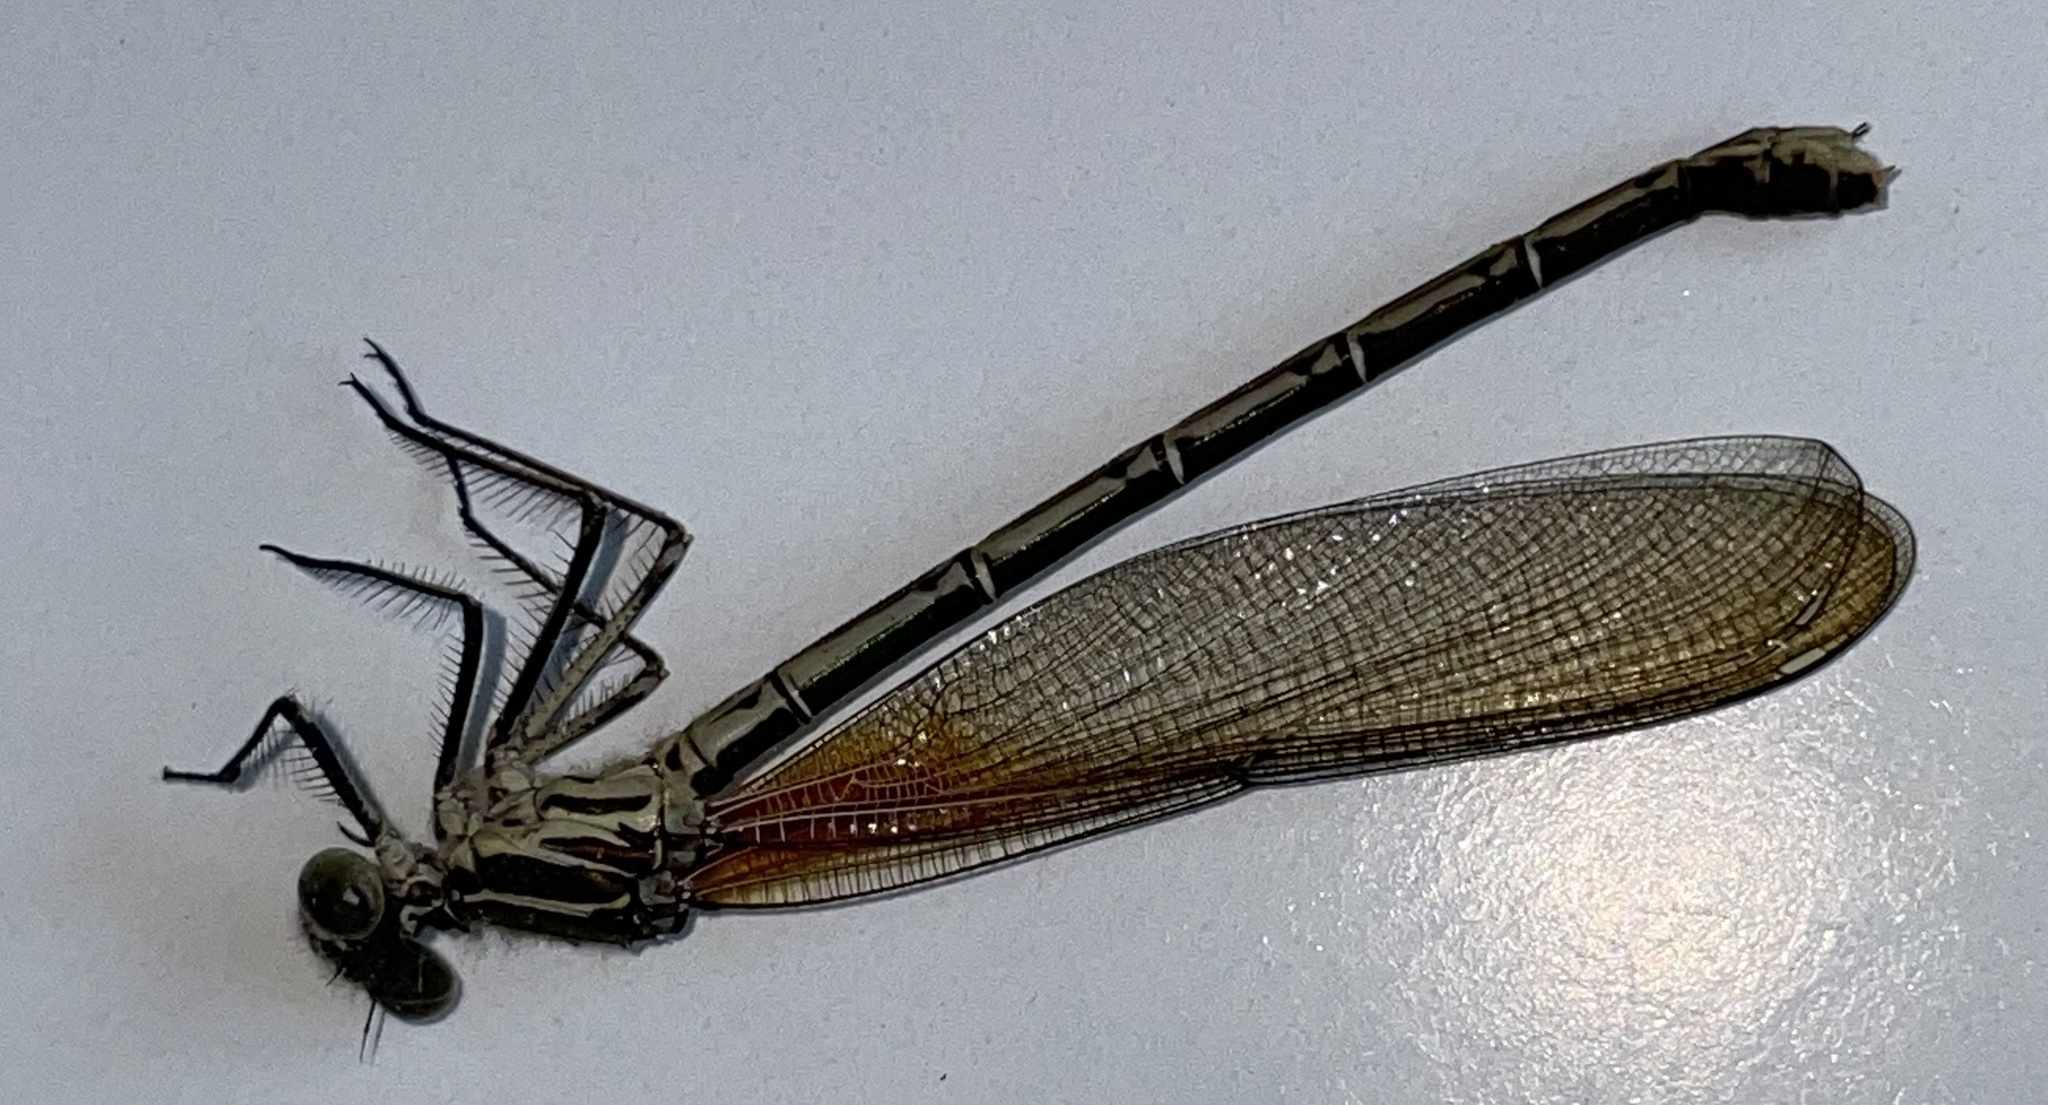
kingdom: Animalia
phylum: Arthropoda
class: Insecta
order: Odonata
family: Calopterygidae
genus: Hetaerina
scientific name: Hetaerina americana
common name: American rubyspot
